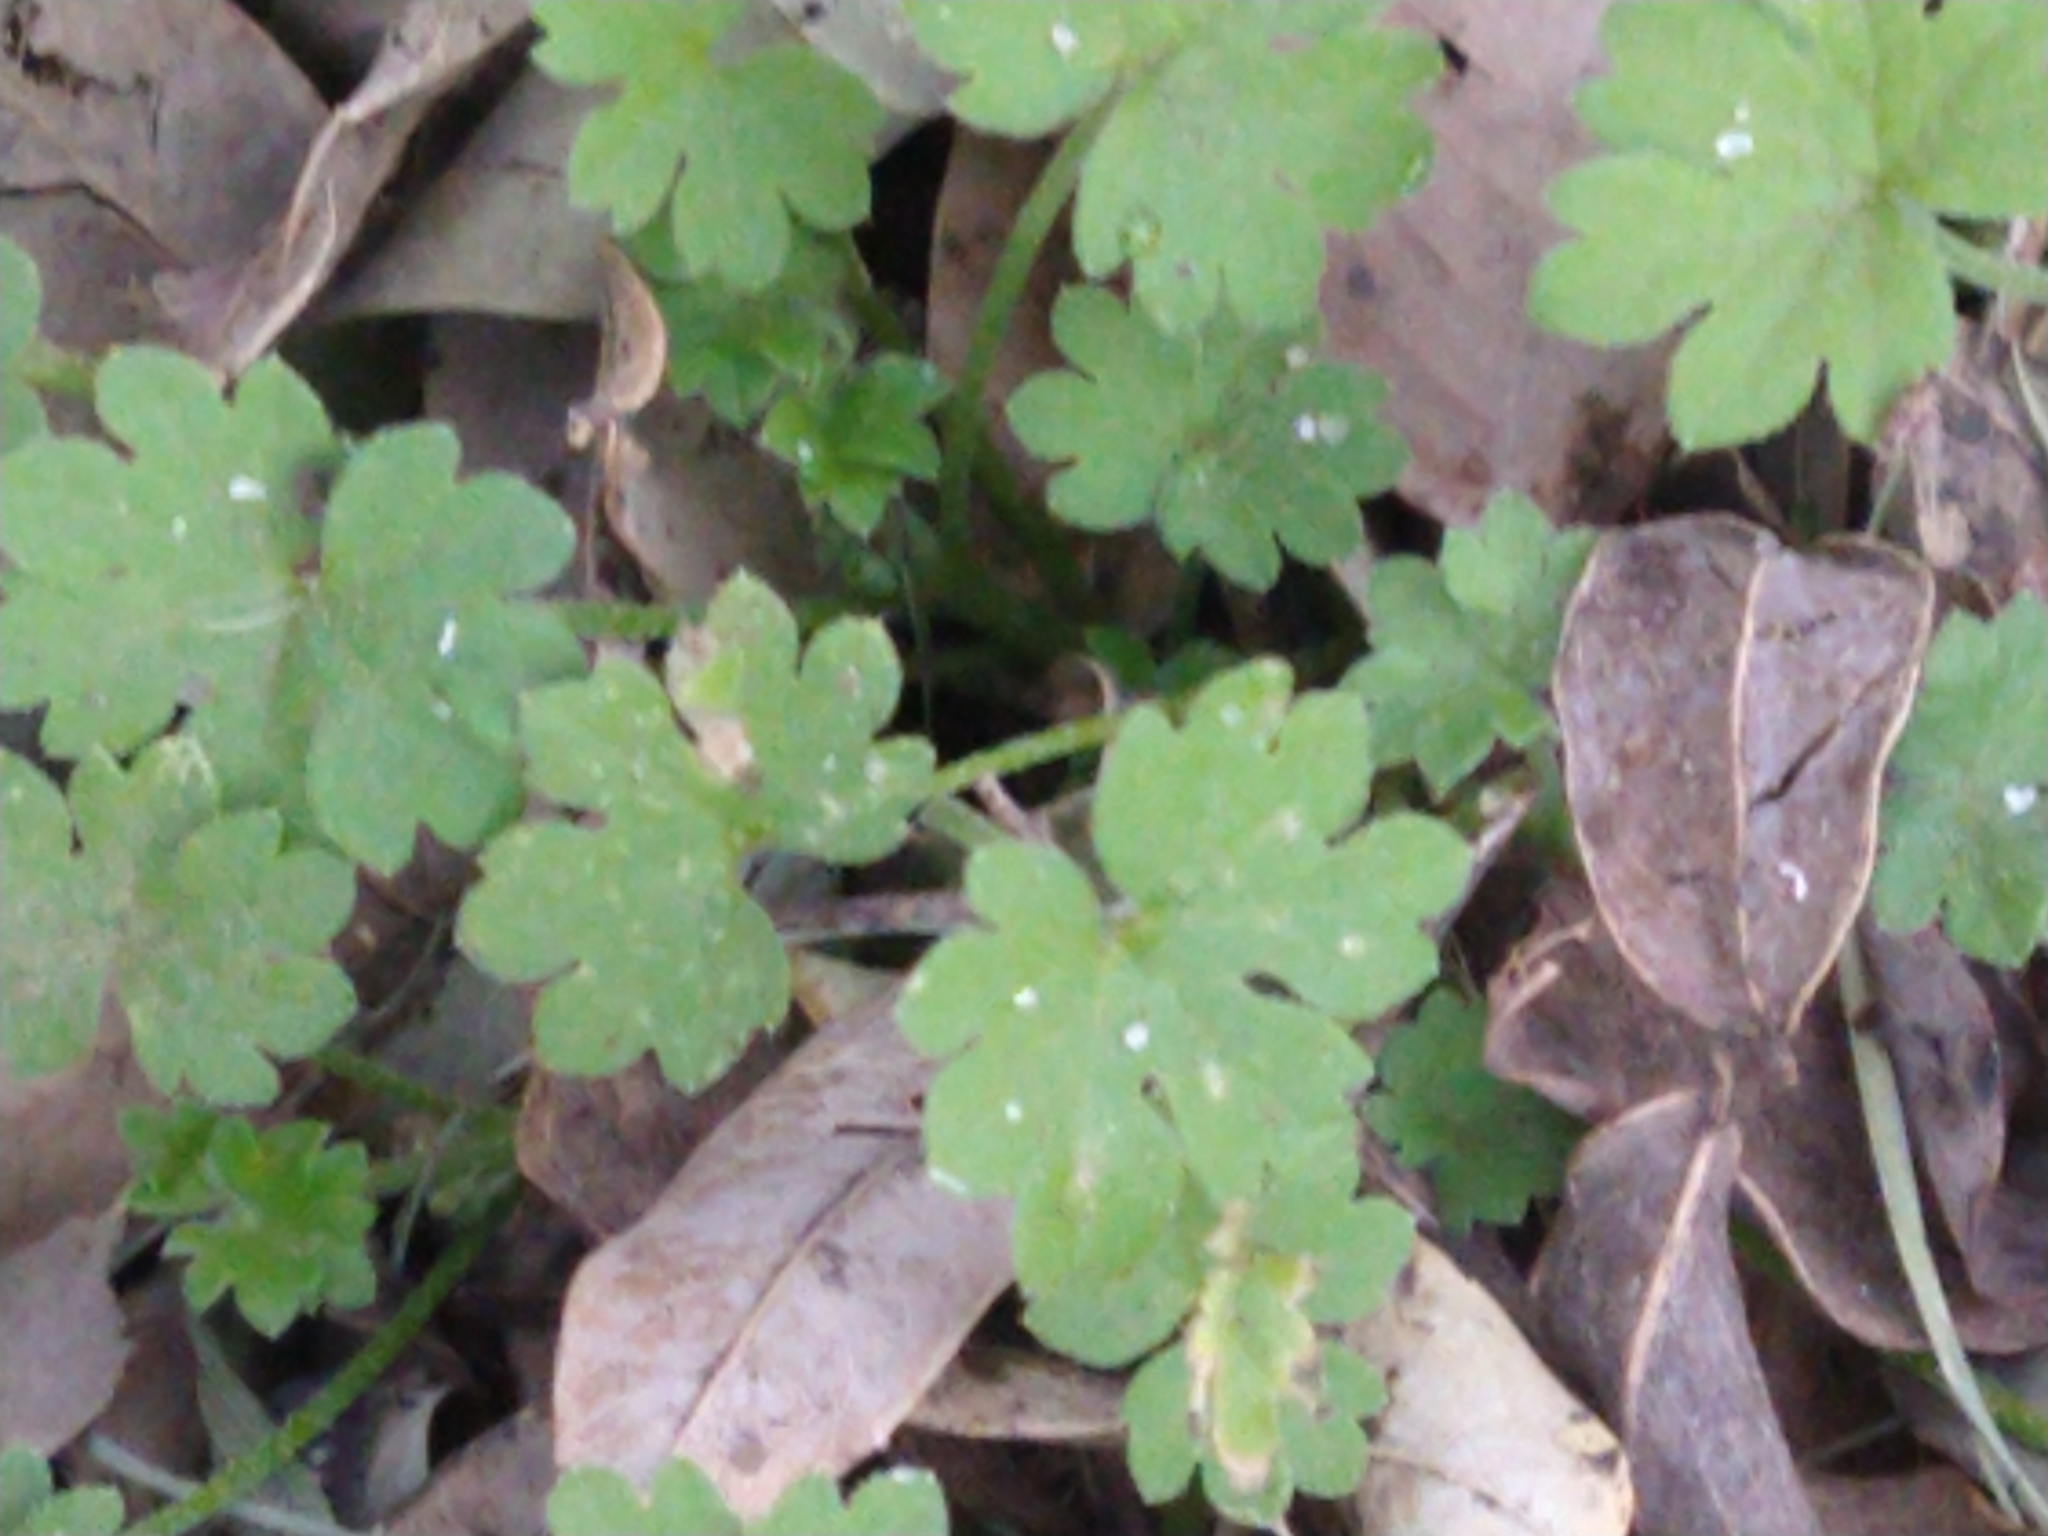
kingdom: Plantae
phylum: Tracheophyta
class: Magnoliopsida
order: Apiales
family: Apiaceae
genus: Bowlesia
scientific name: Bowlesia incana
